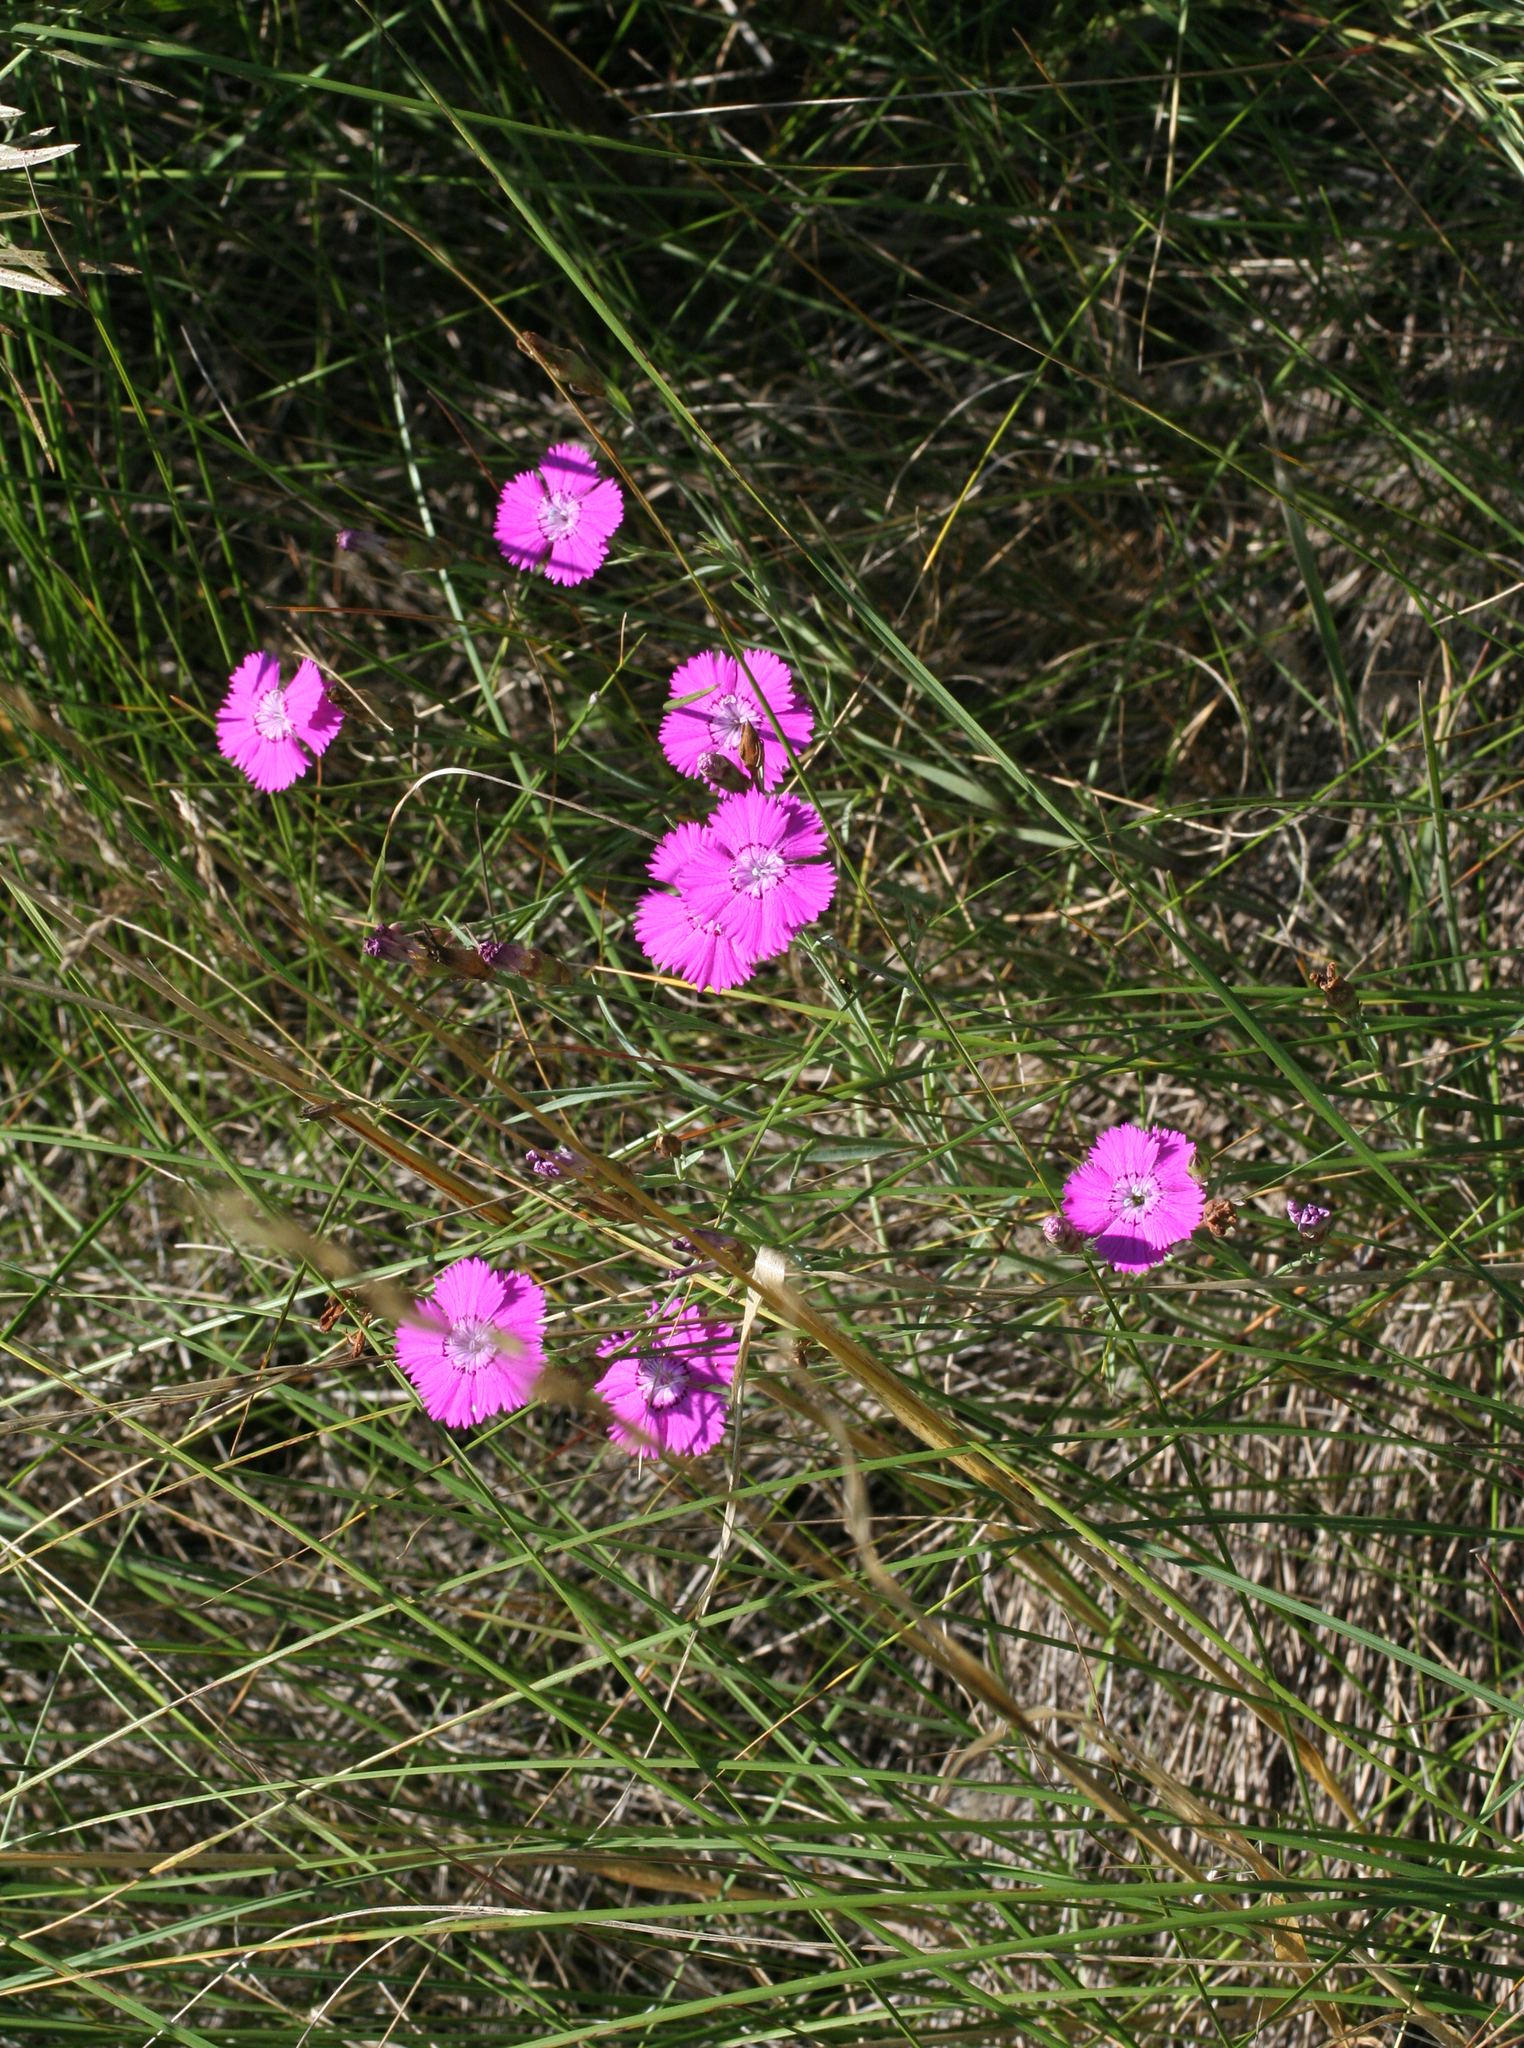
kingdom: Plantae
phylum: Tracheophyta
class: Magnoliopsida
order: Caryophyllales
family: Caryophyllaceae
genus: Dianthus
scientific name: Dianthus chinensis
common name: Rainbow pink
